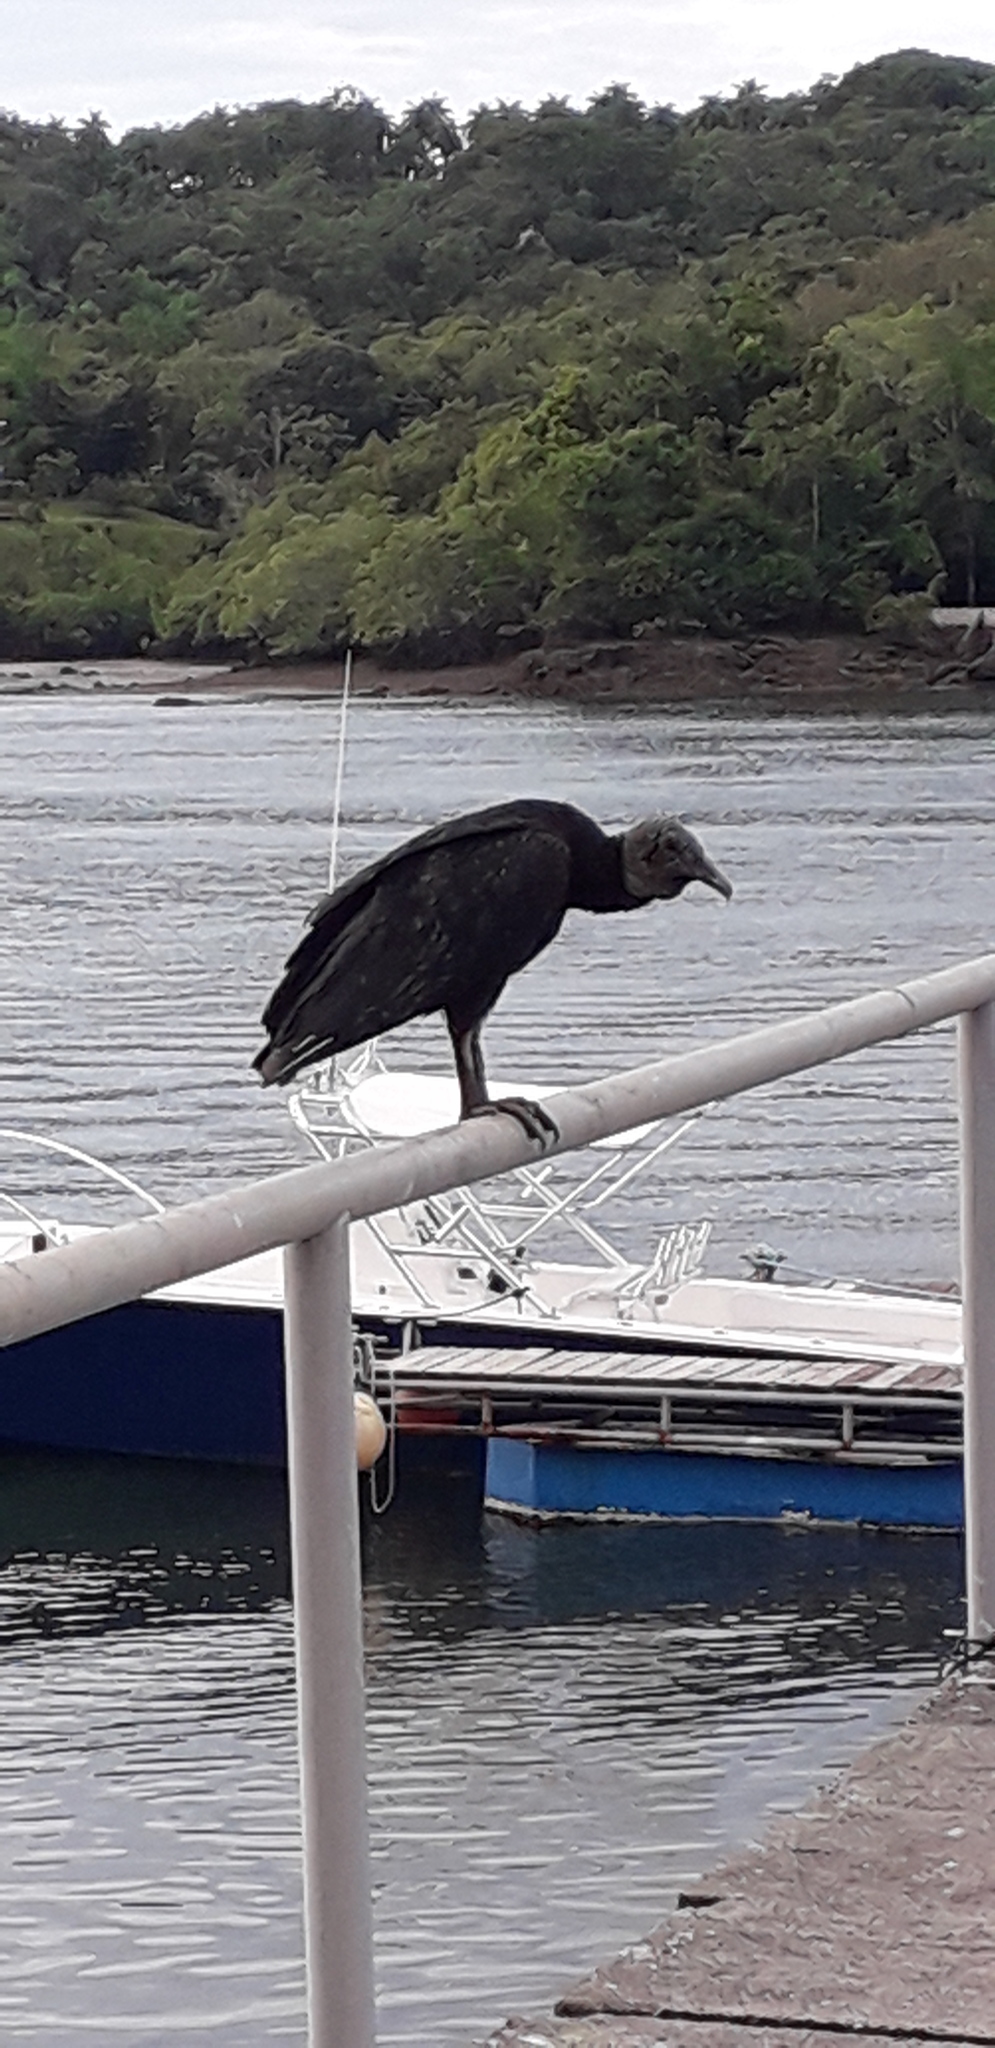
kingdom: Animalia
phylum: Chordata
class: Aves
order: Accipitriformes
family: Cathartidae
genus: Coragyps
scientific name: Coragyps atratus
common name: Black vulture
